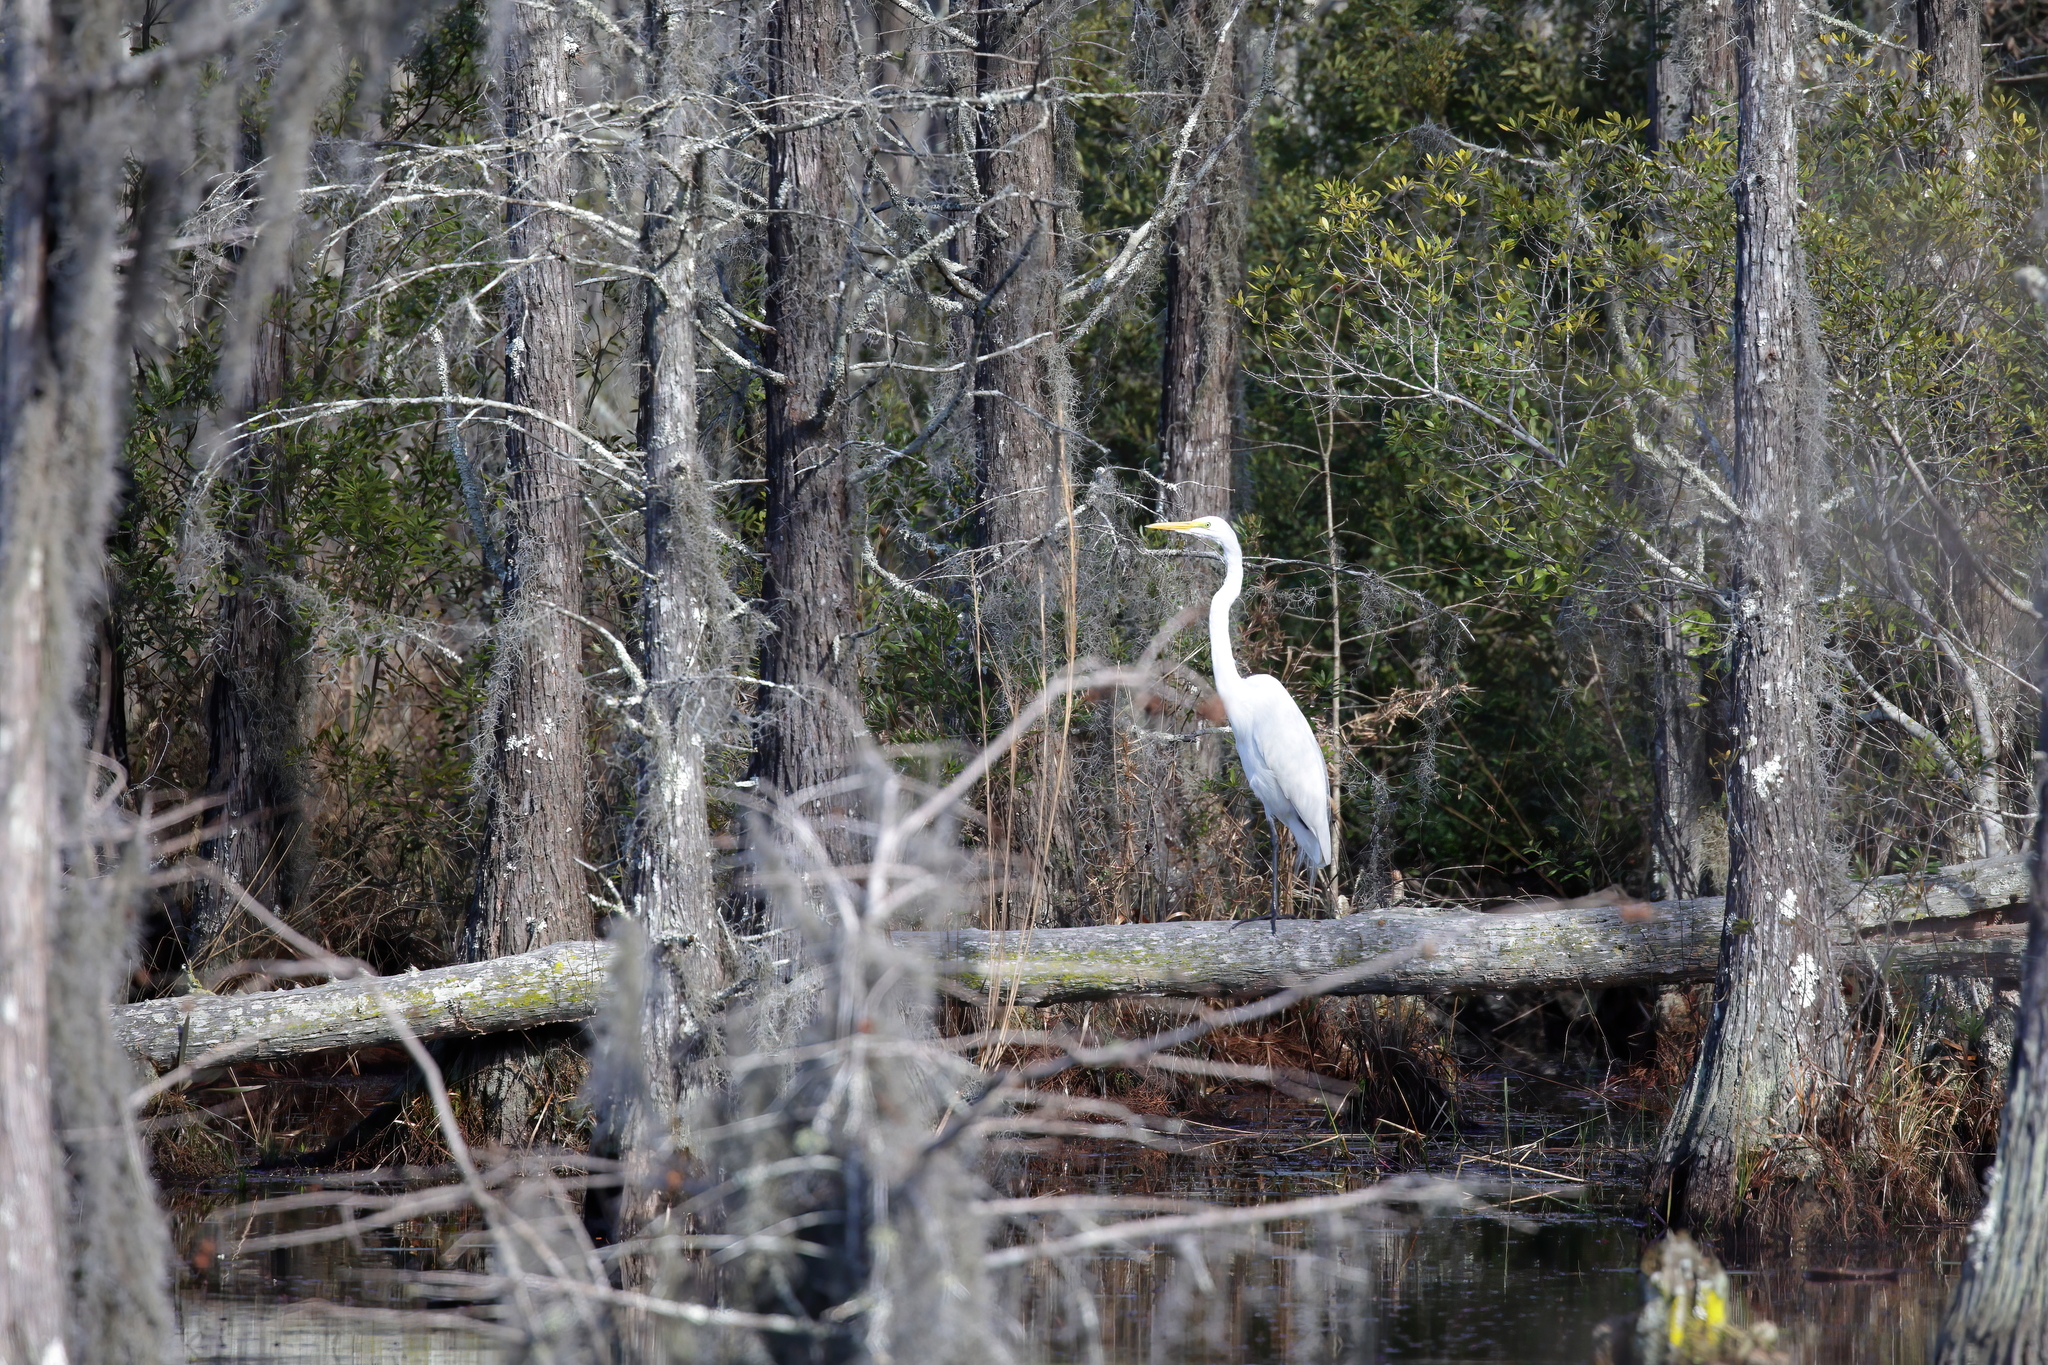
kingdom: Animalia
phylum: Chordata
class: Aves
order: Pelecaniformes
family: Ardeidae
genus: Ardea
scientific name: Ardea alba
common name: Great egret
